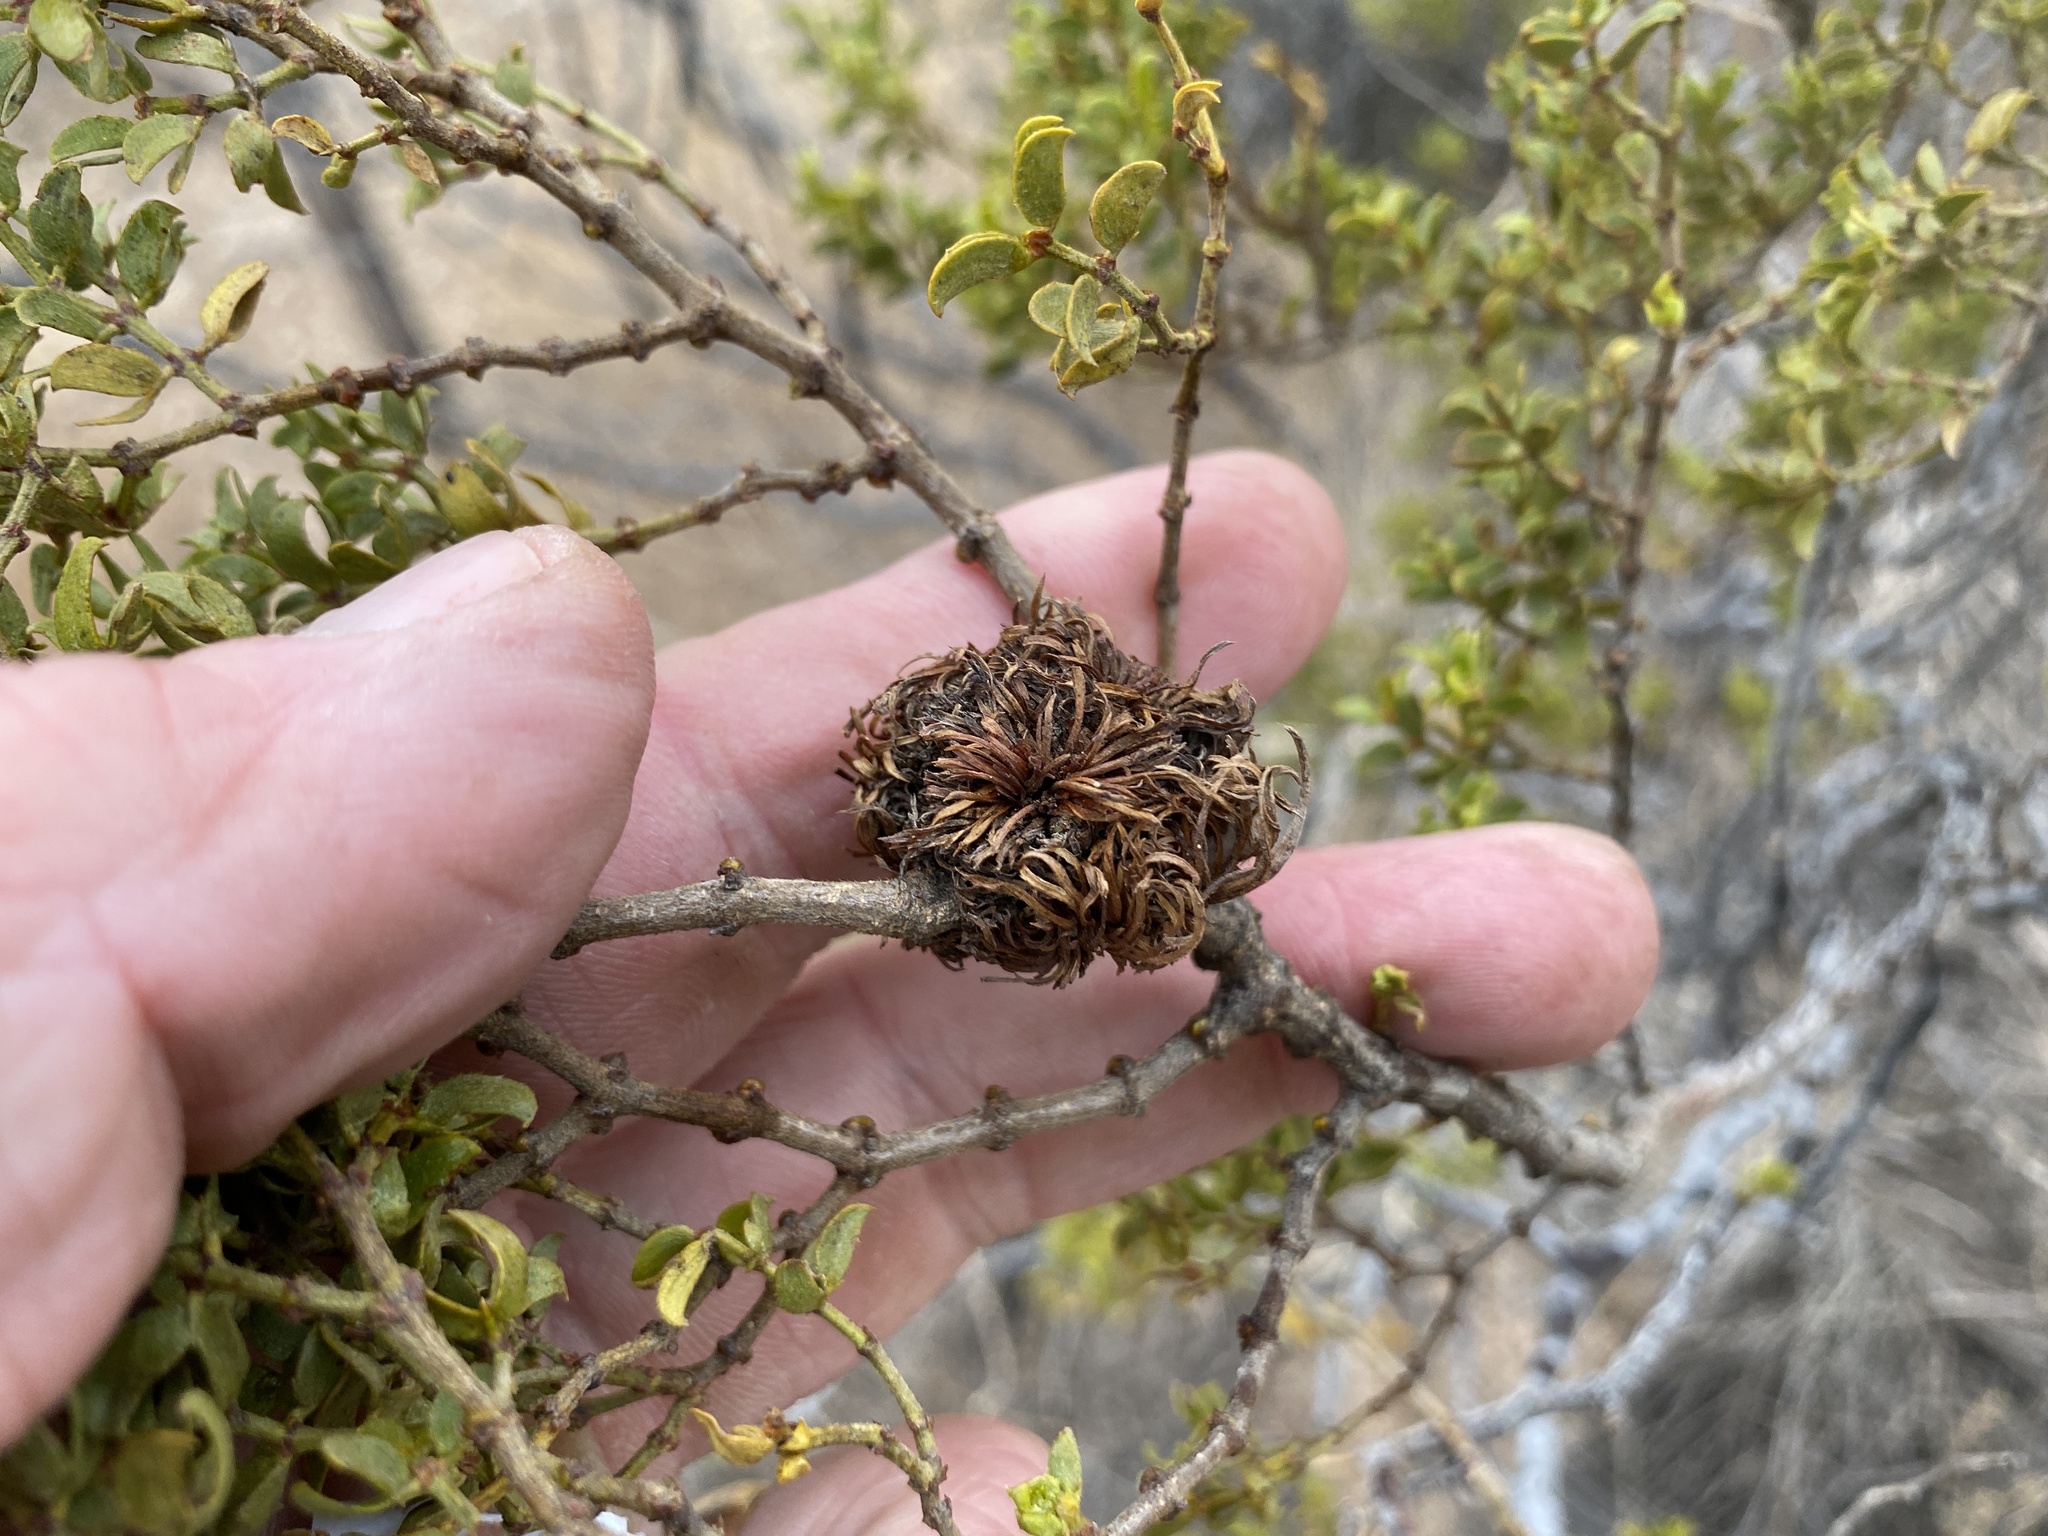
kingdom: Animalia
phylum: Arthropoda
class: Insecta
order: Diptera
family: Cecidomyiidae
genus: Asphondylia
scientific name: Asphondylia auripila
